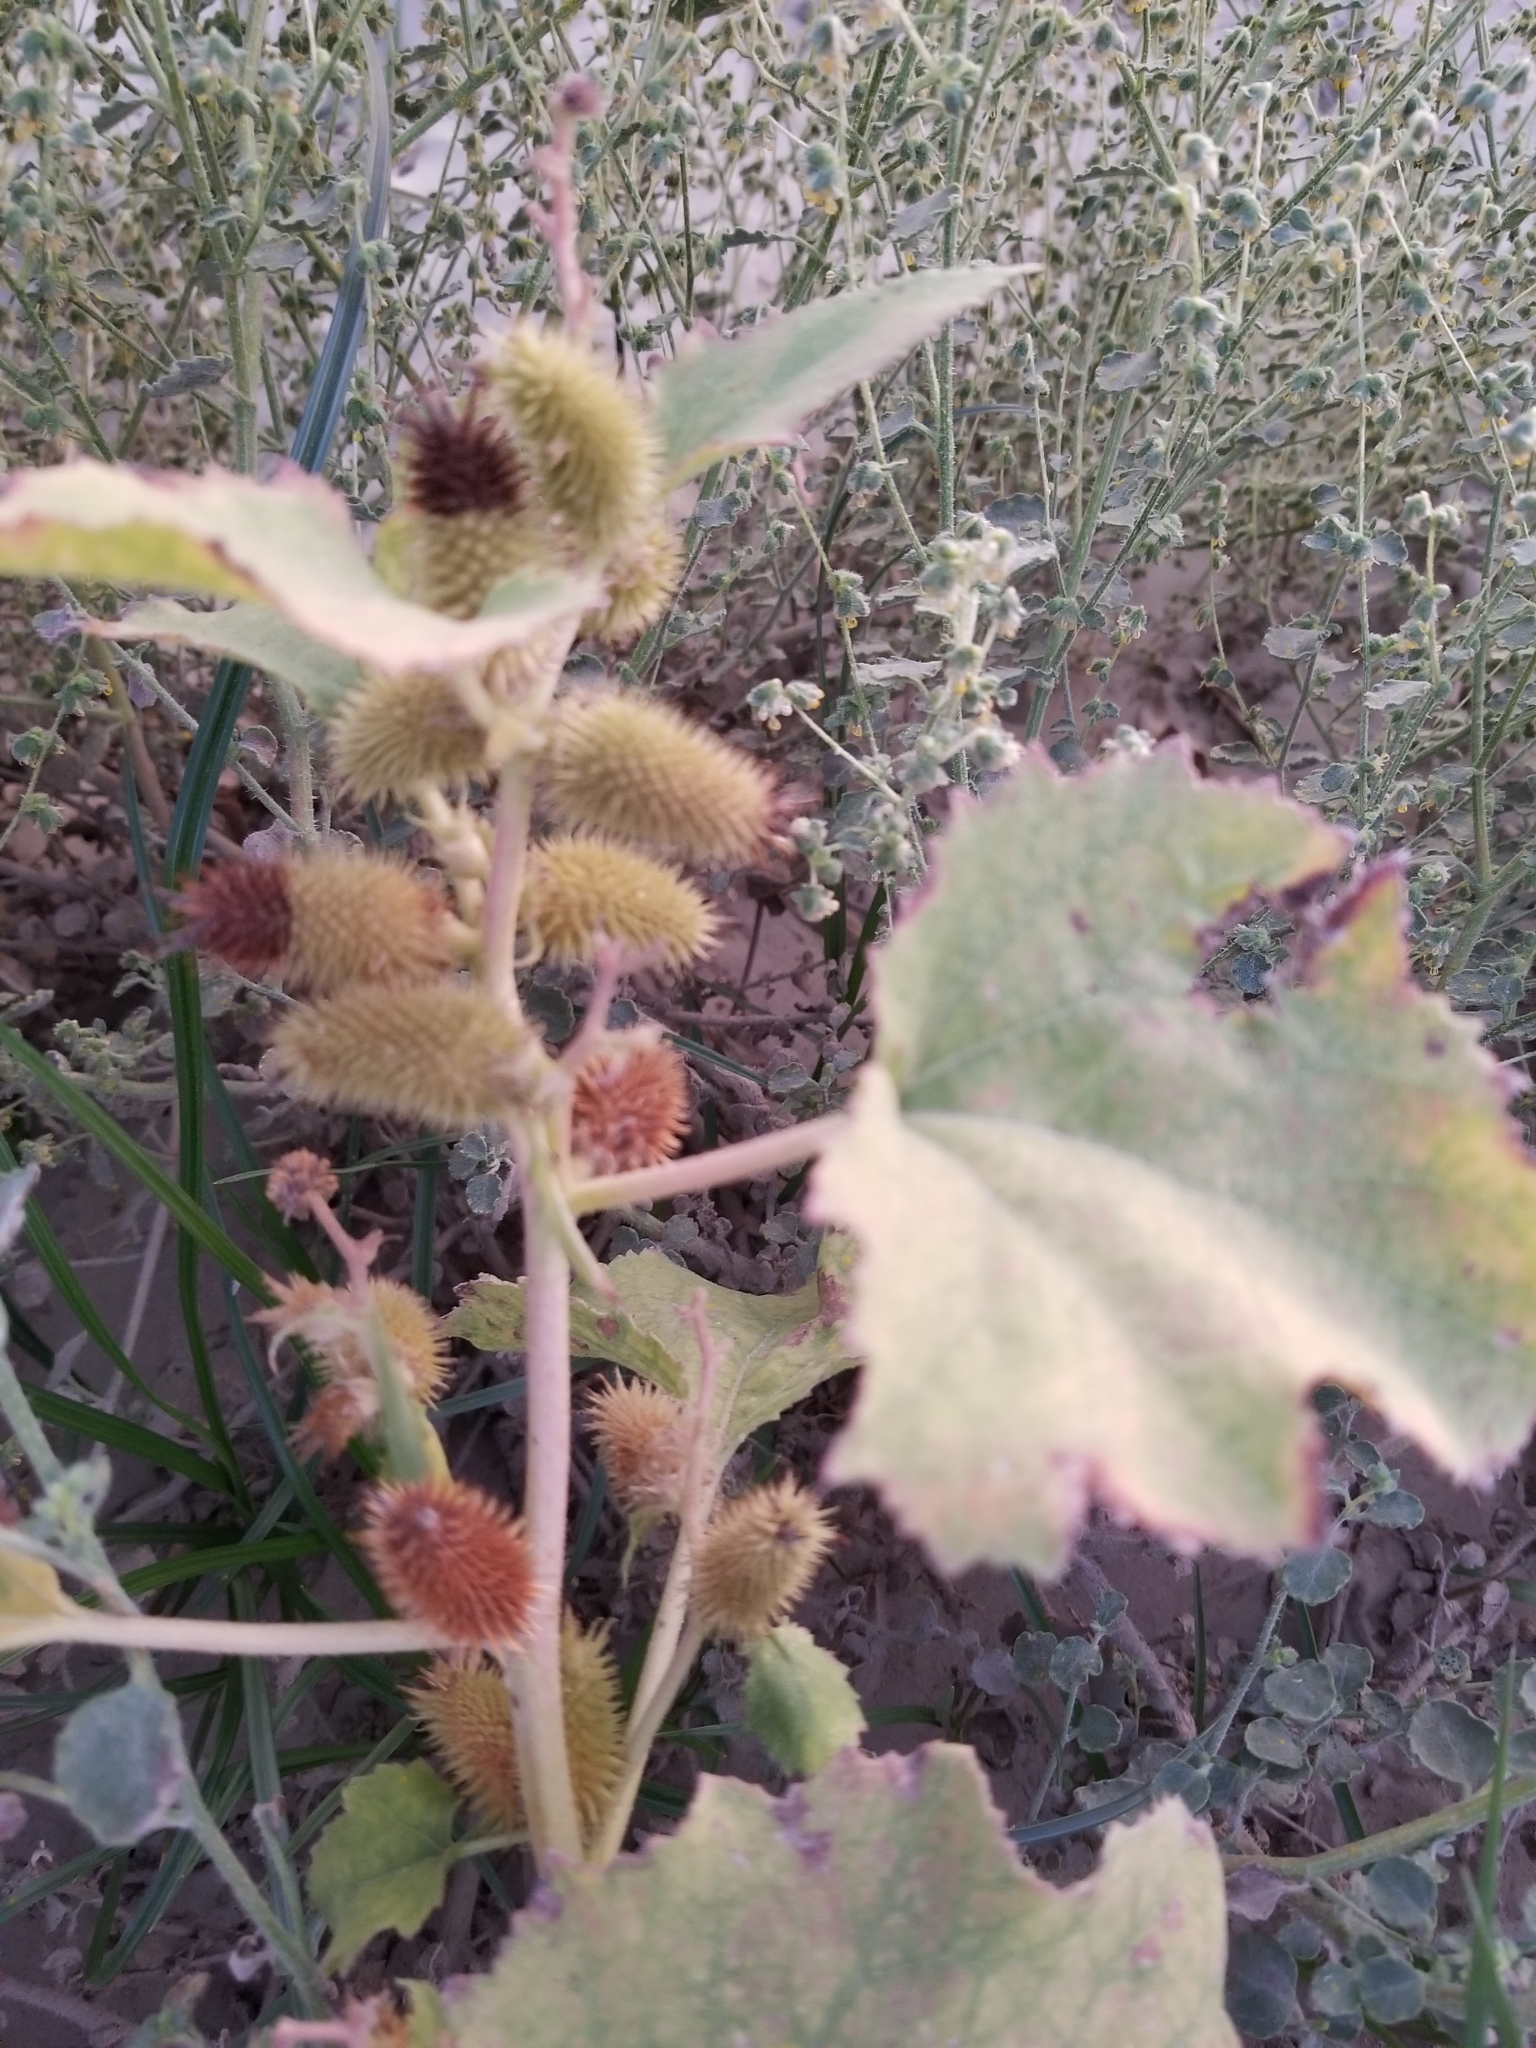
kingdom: Plantae
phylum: Tracheophyta
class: Magnoliopsida
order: Asterales
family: Asteraceae
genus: Xanthium
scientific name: Xanthium strumarium
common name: Rough cocklebur
